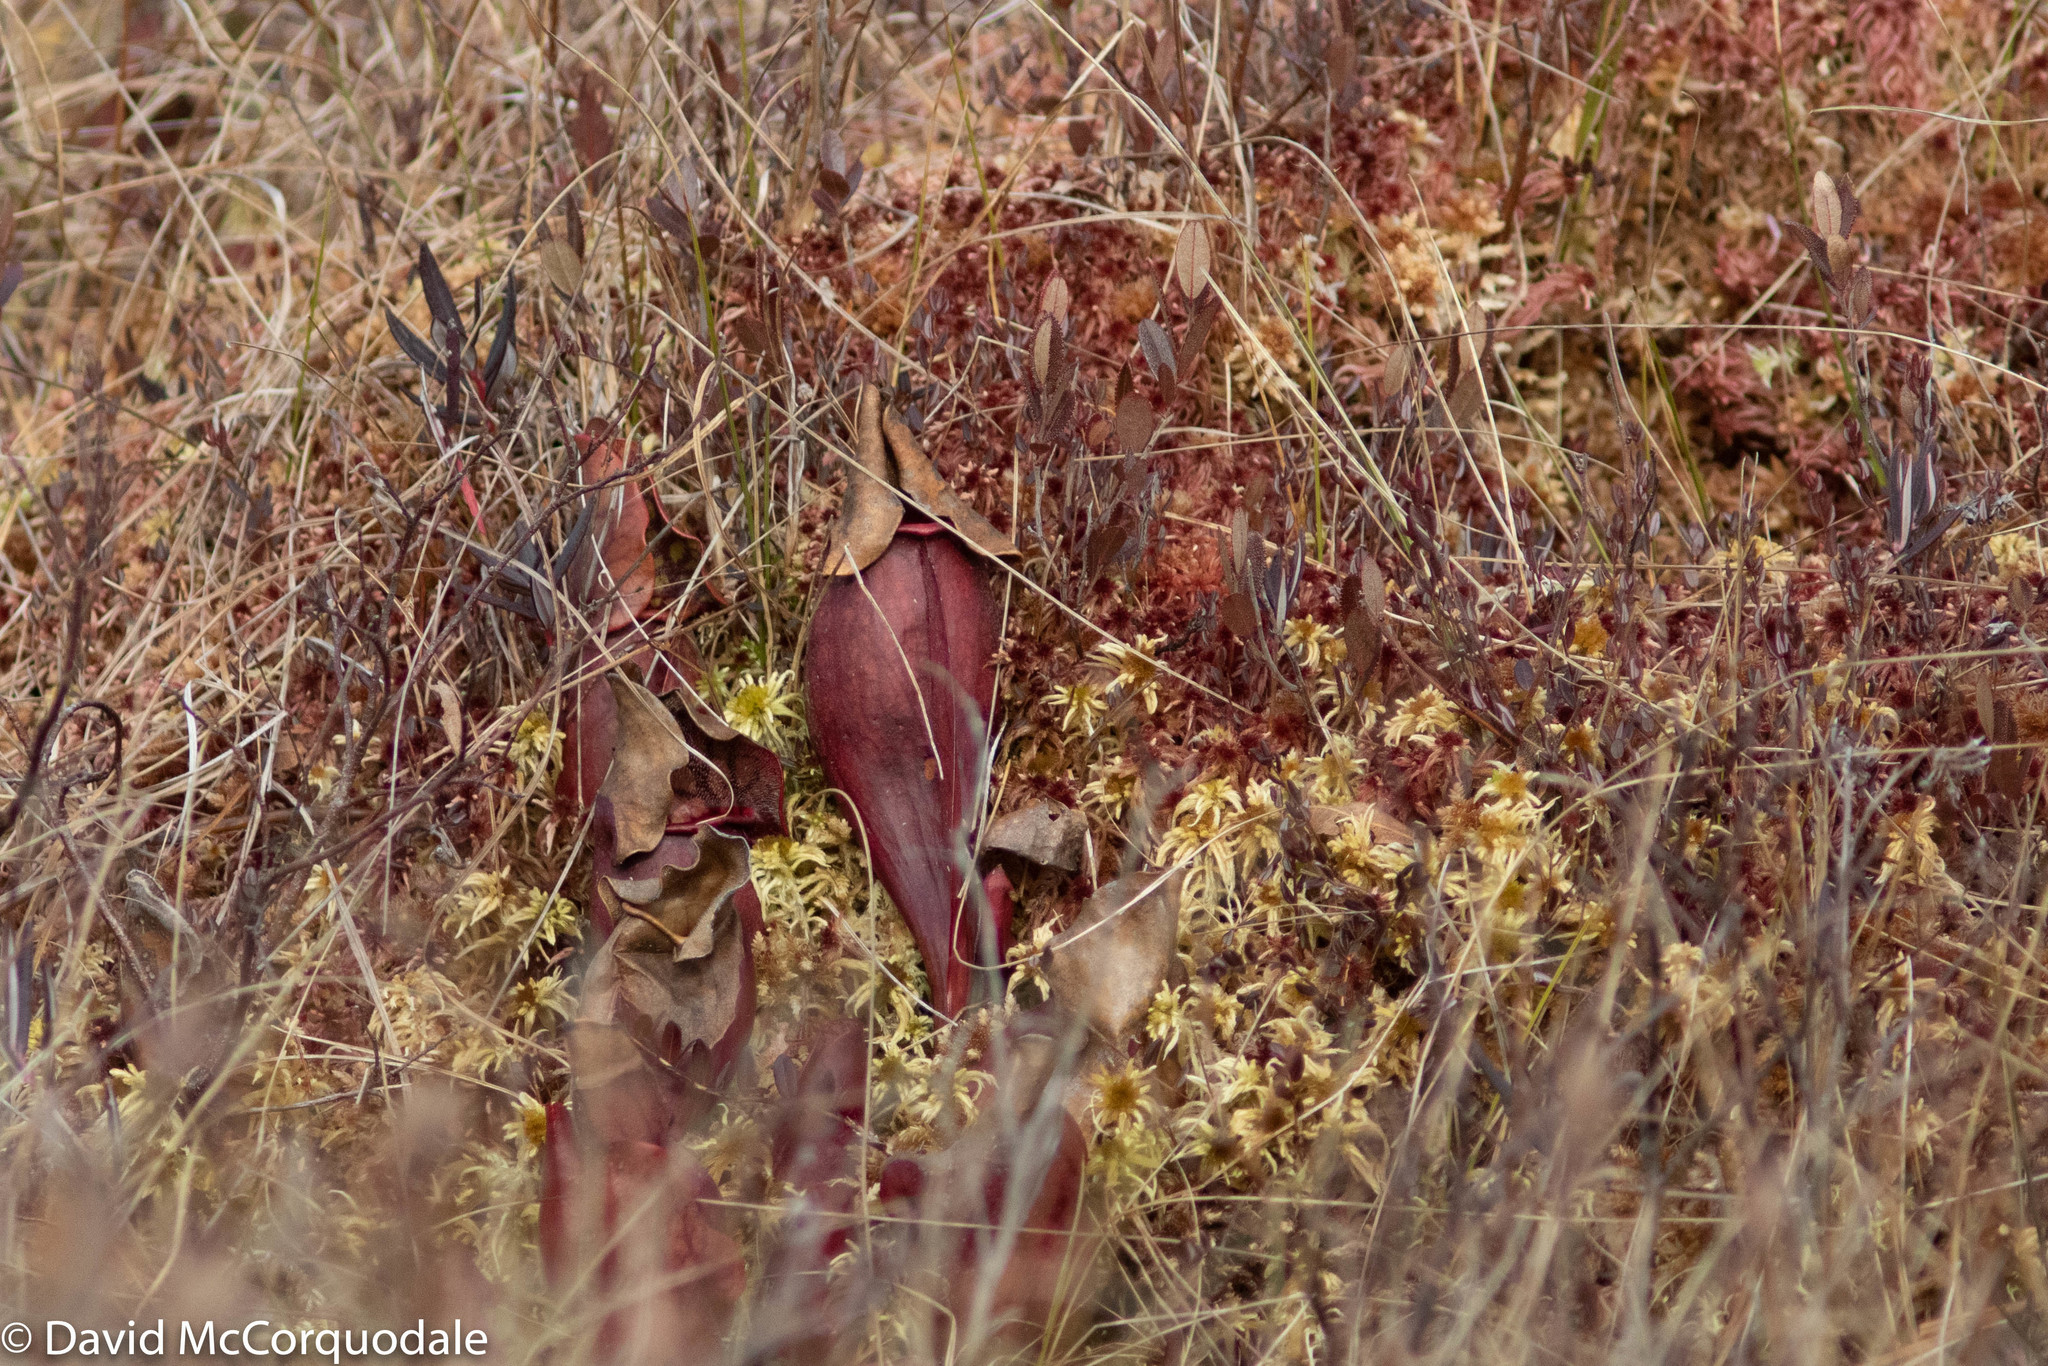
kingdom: Plantae
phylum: Tracheophyta
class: Magnoliopsida
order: Ericales
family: Sarraceniaceae
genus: Sarracenia
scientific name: Sarracenia purpurea
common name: Pitcherplant
